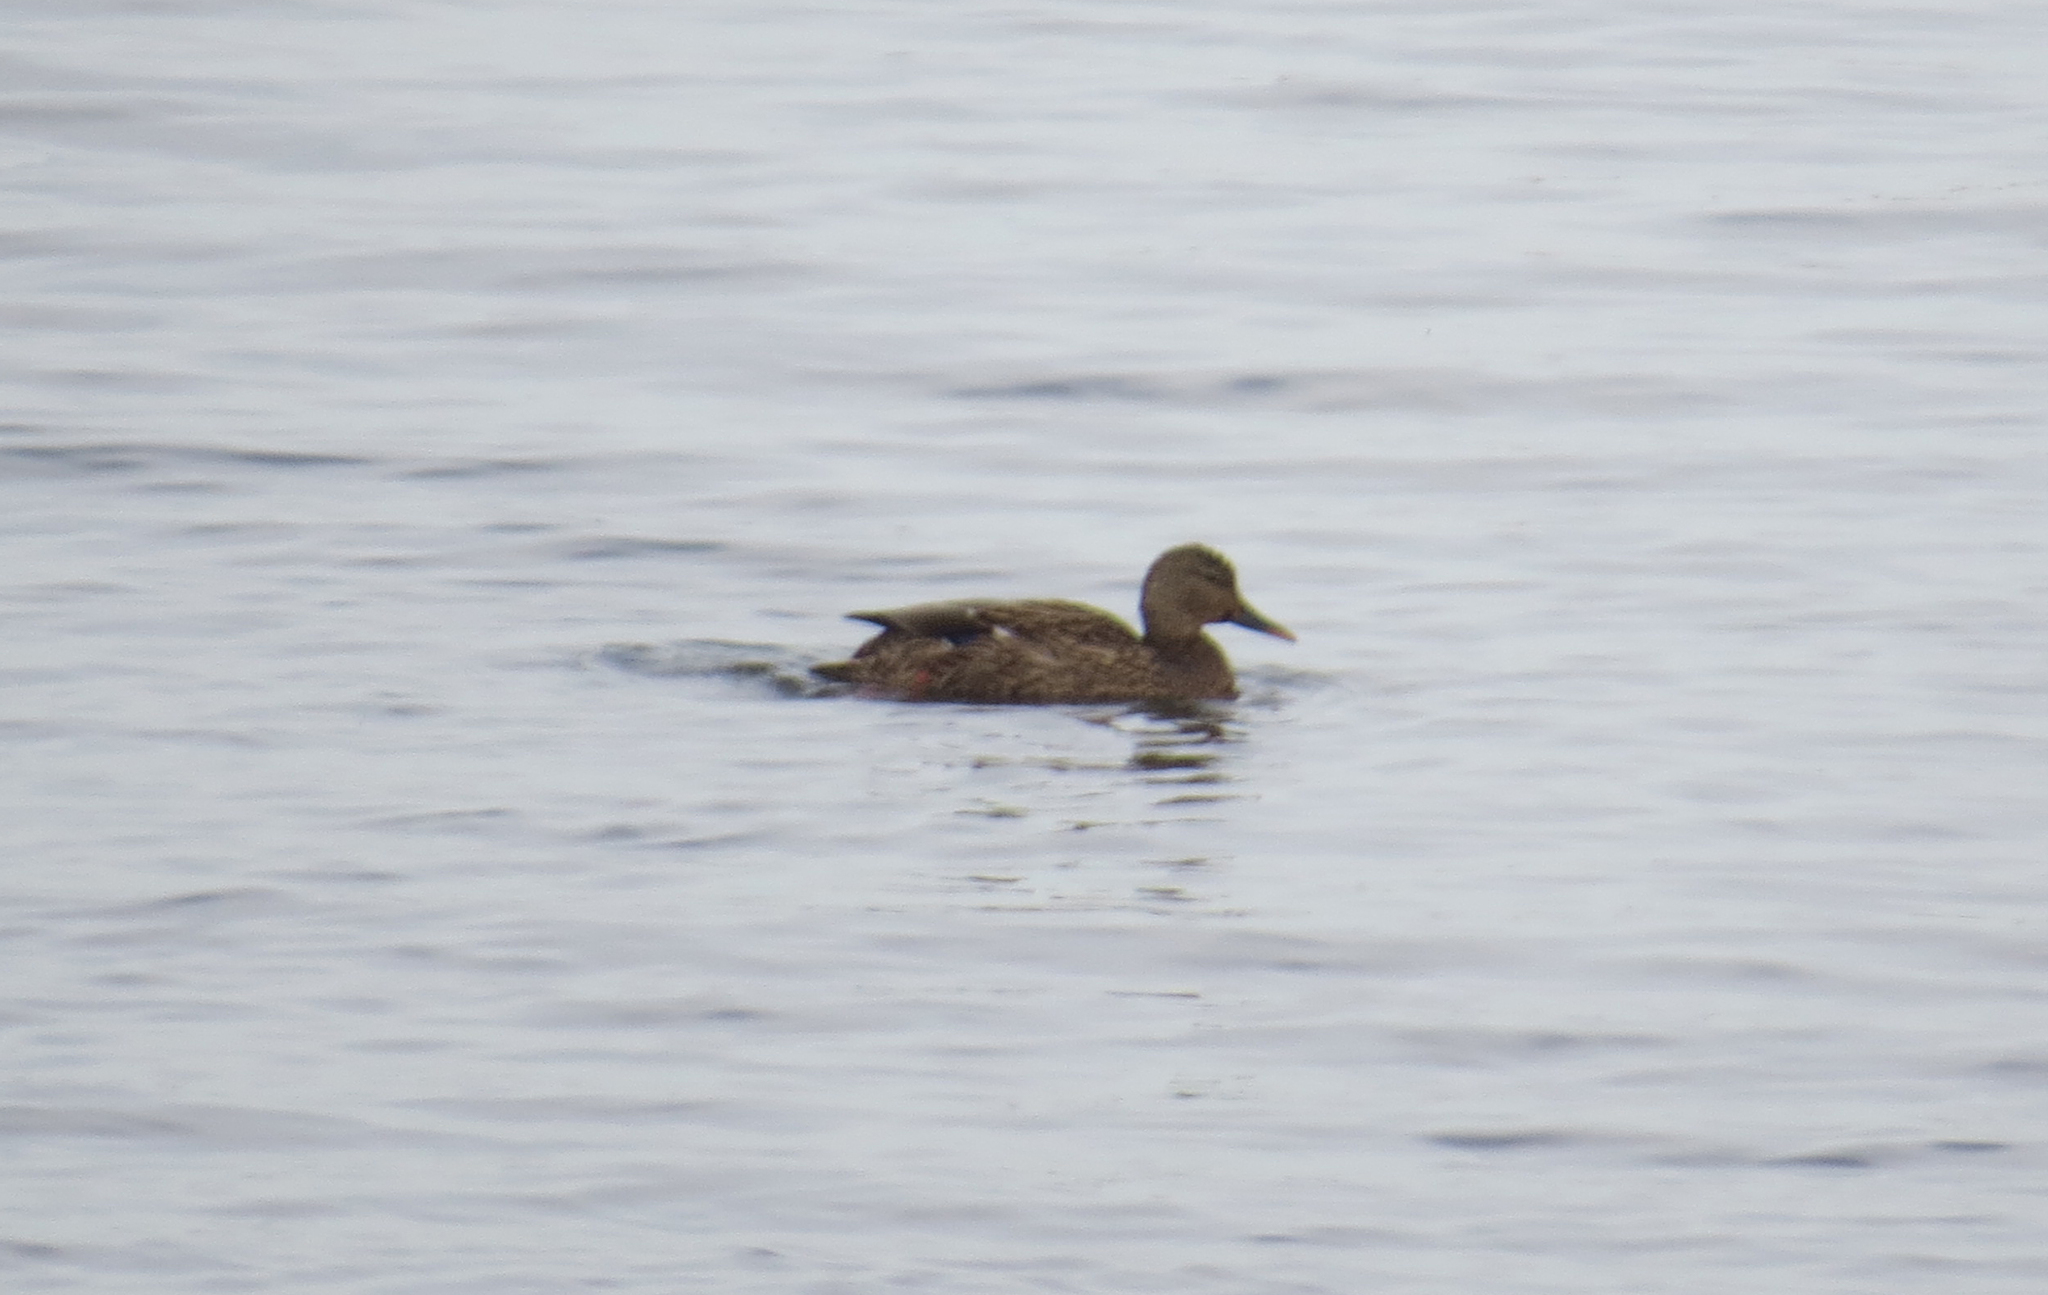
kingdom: Animalia
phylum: Chordata
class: Aves
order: Anseriformes
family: Anatidae
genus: Anas
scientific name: Anas platyrhynchos
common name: Mallard
